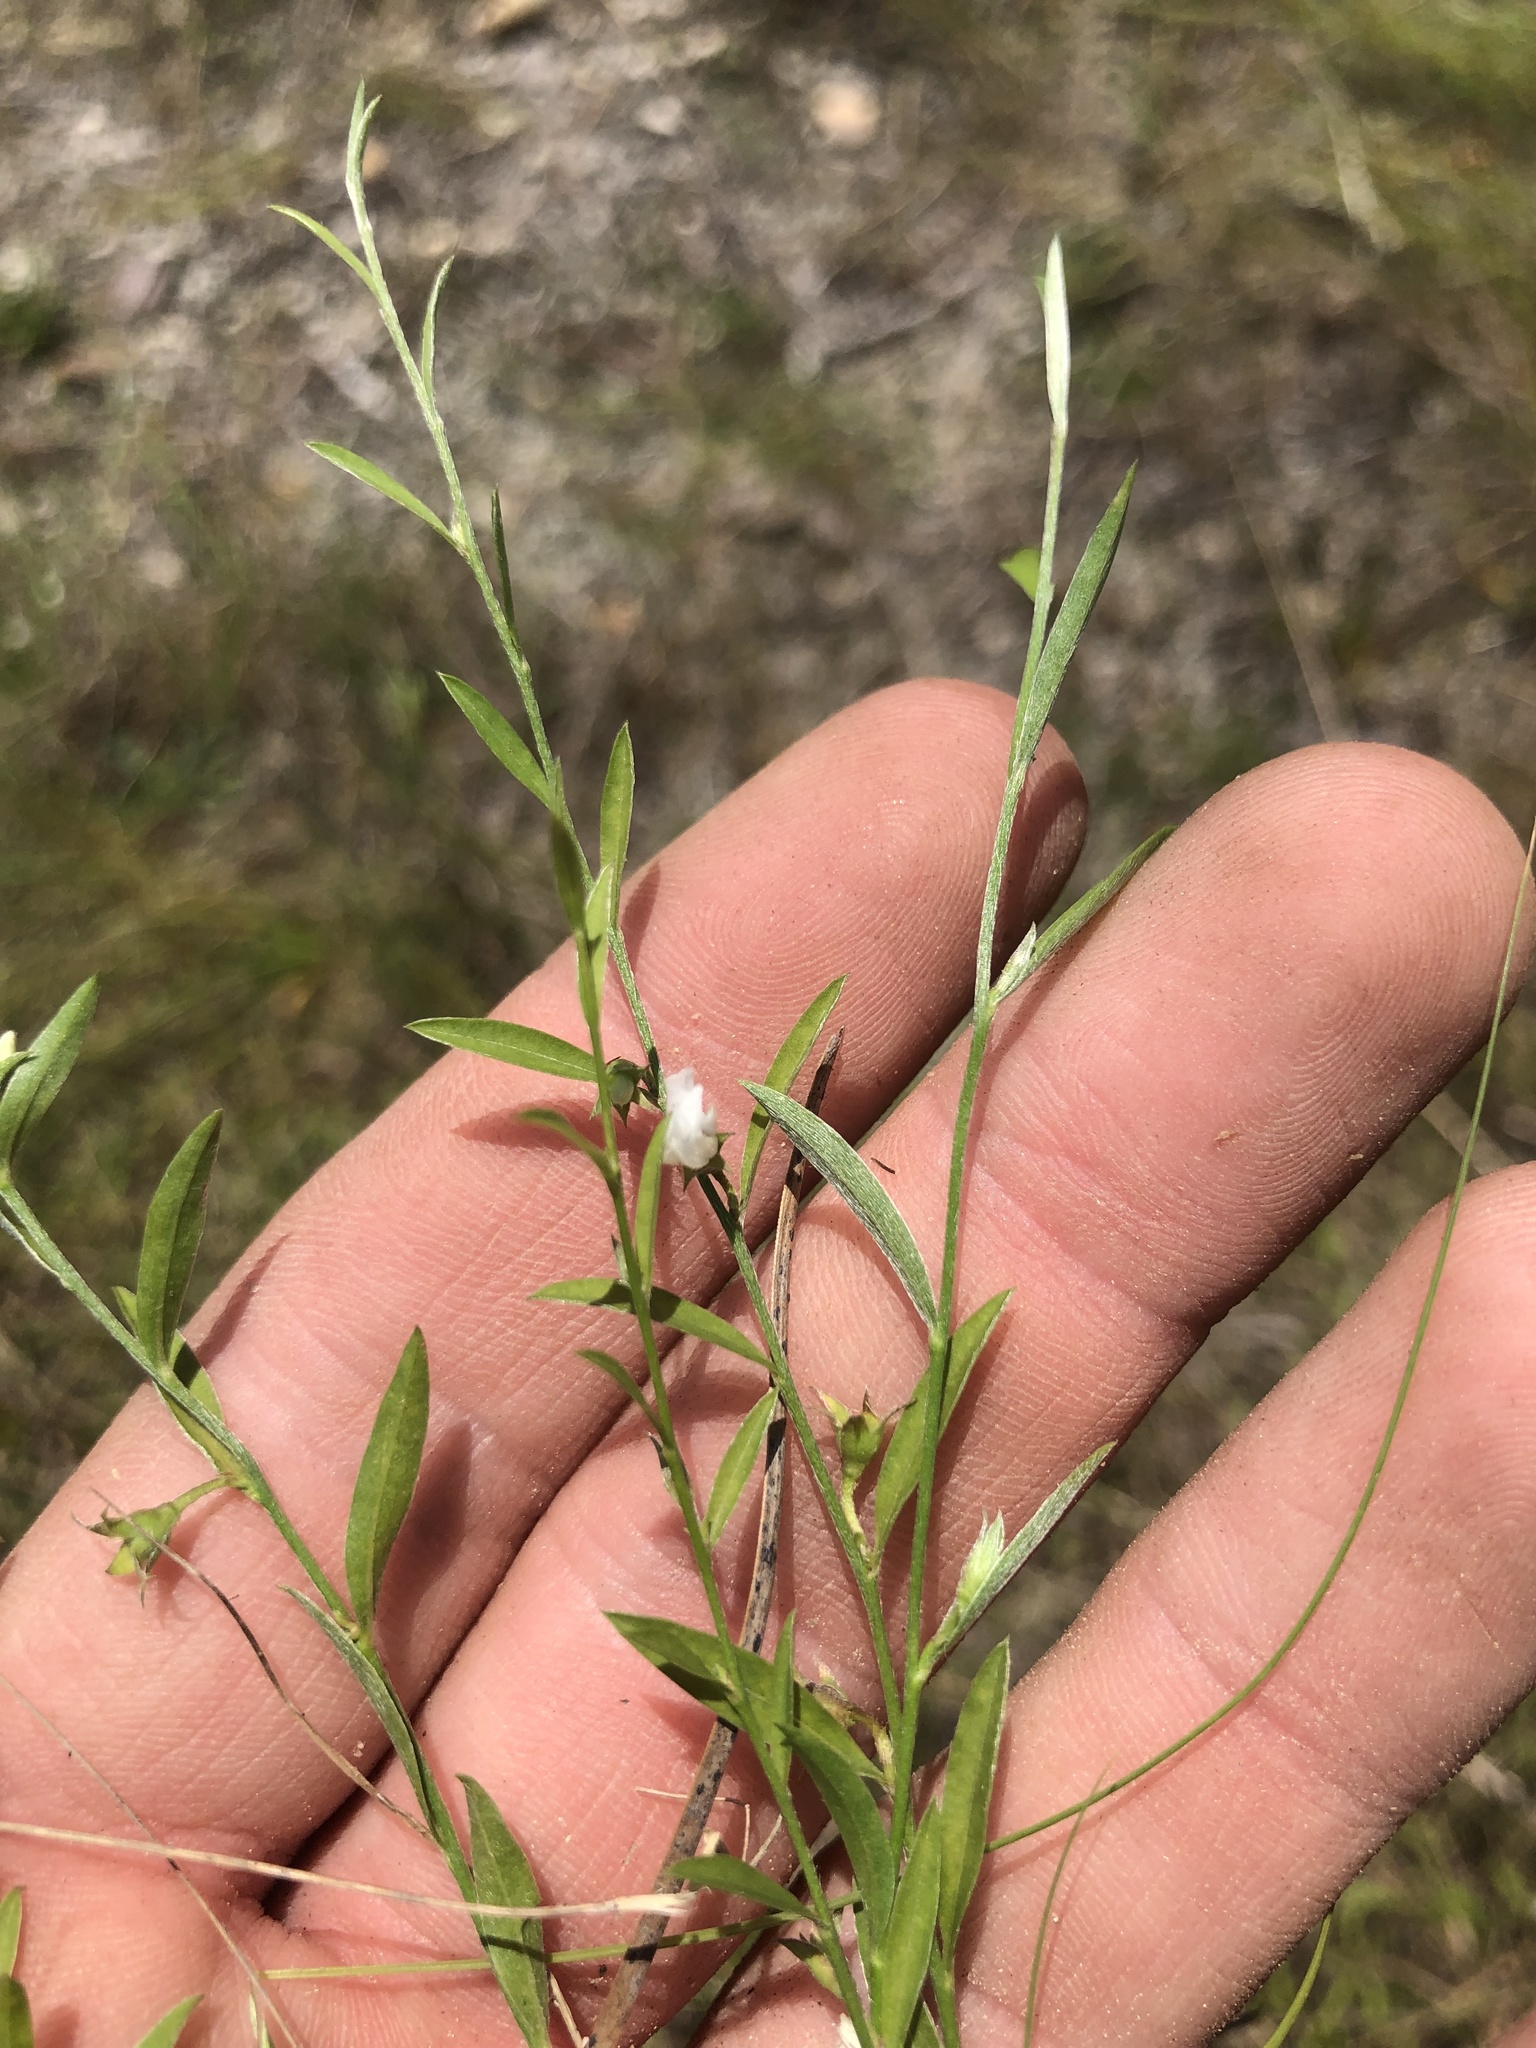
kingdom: Plantae
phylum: Tracheophyta
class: Magnoliopsida
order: Solanales
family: Convolvulaceae
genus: Evolvulus
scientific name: Evolvulus sericeus
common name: Blue dots
